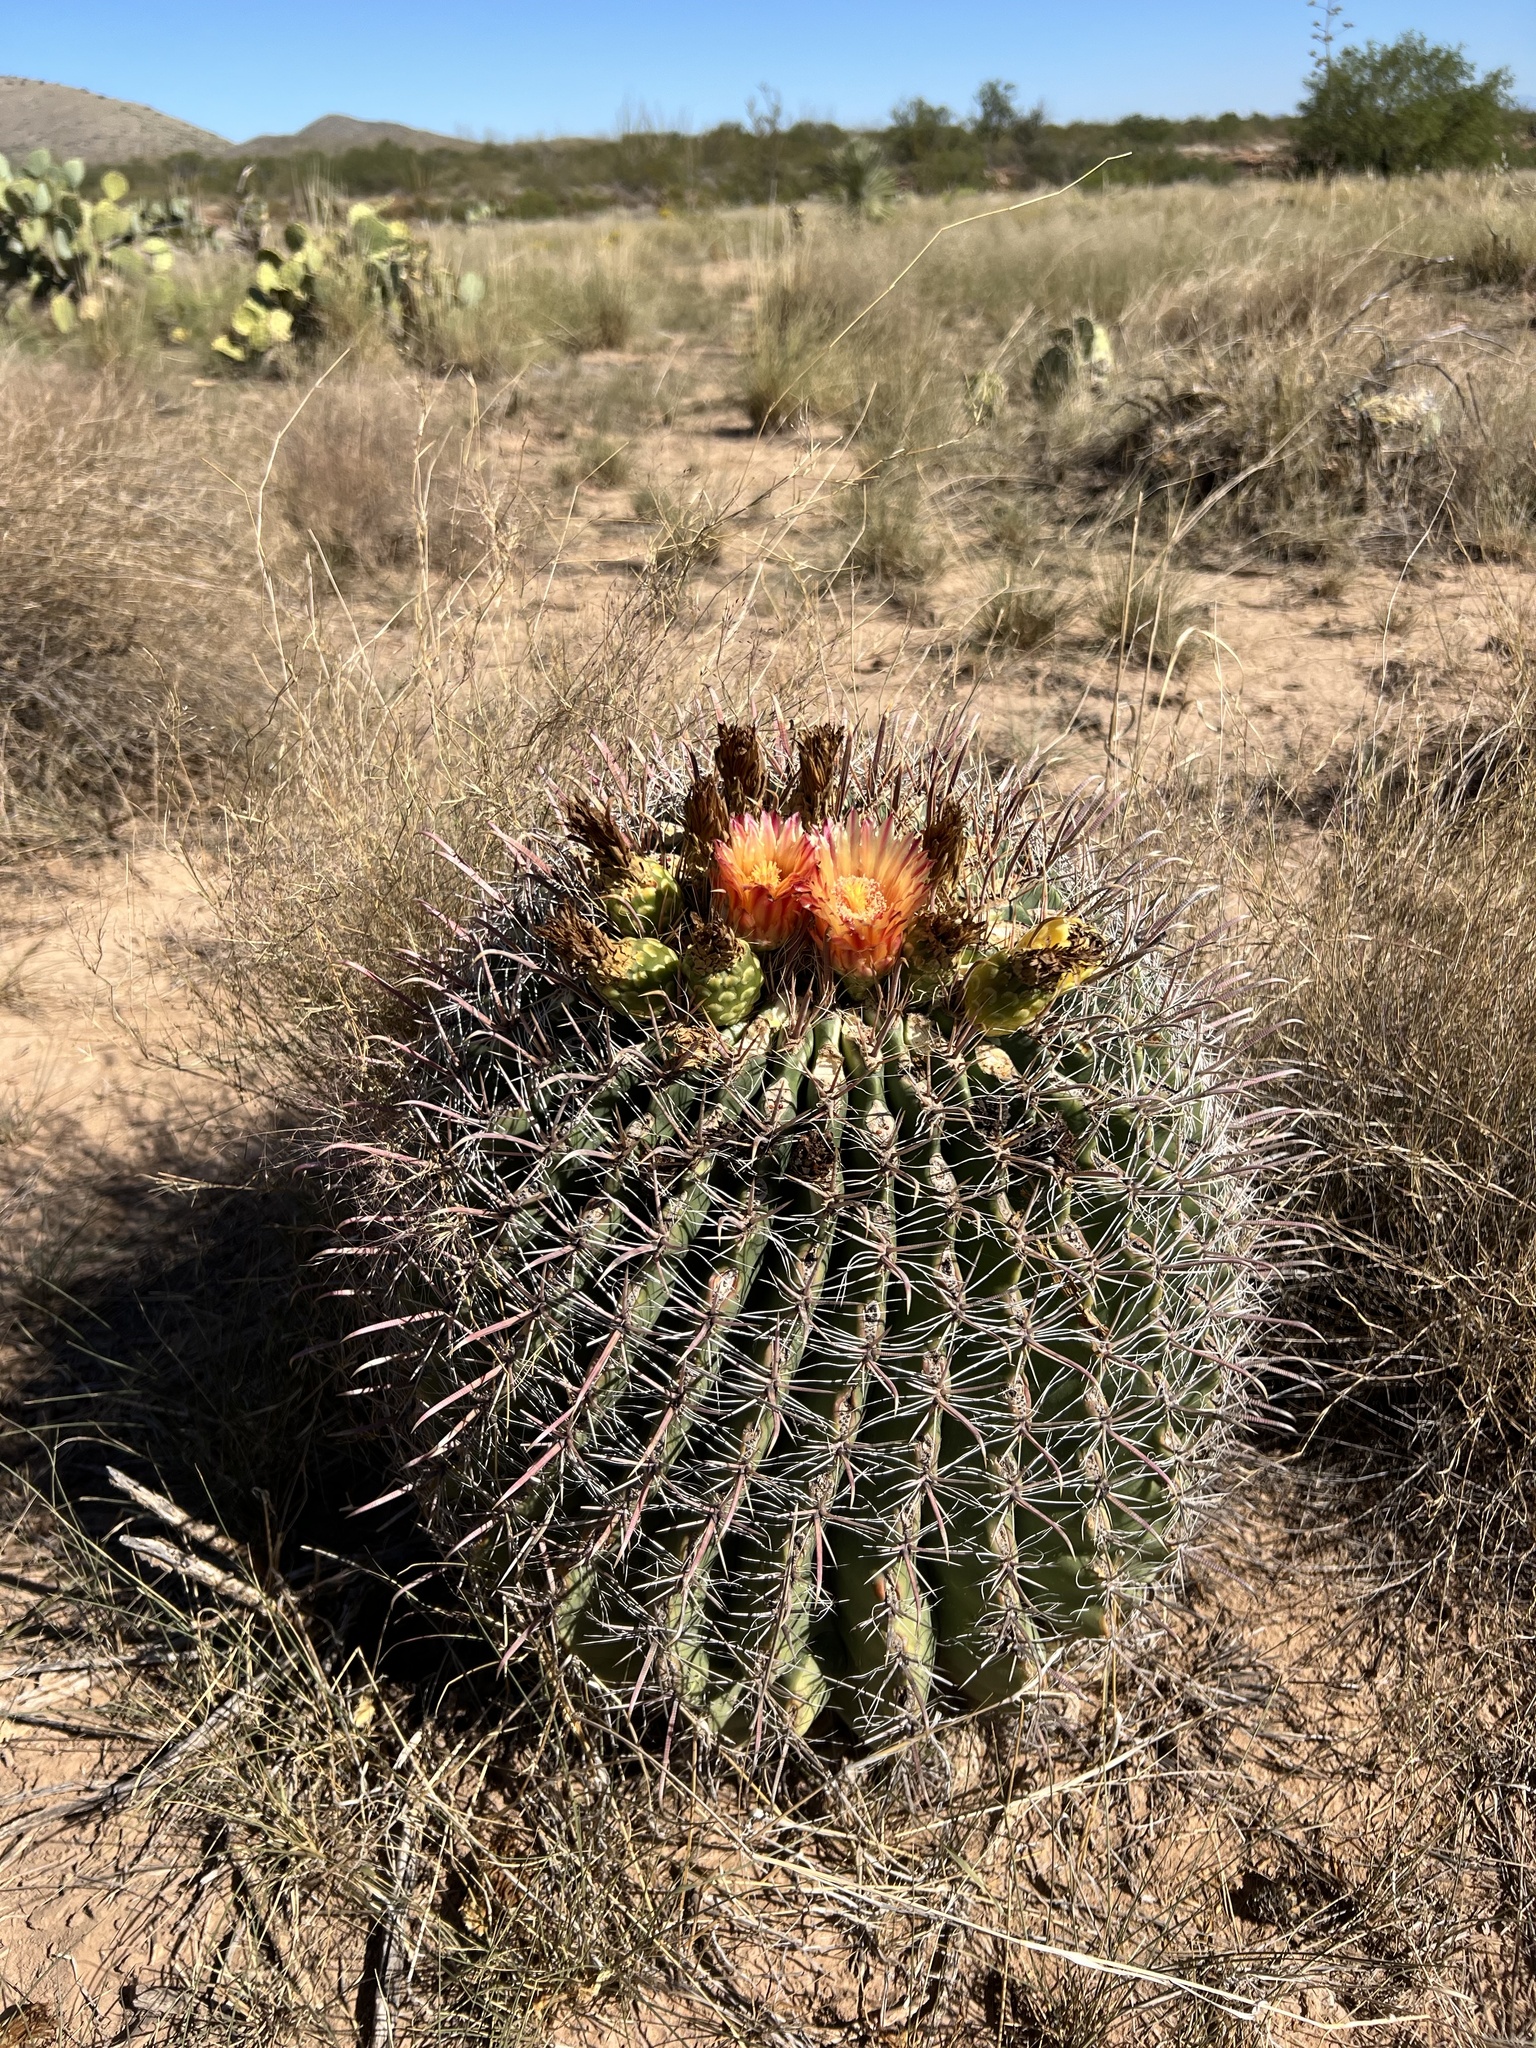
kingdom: Plantae
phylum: Tracheophyta
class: Magnoliopsida
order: Caryophyllales
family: Cactaceae
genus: Ferocactus
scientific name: Ferocactus wislizeni
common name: Candy barrel cactus
